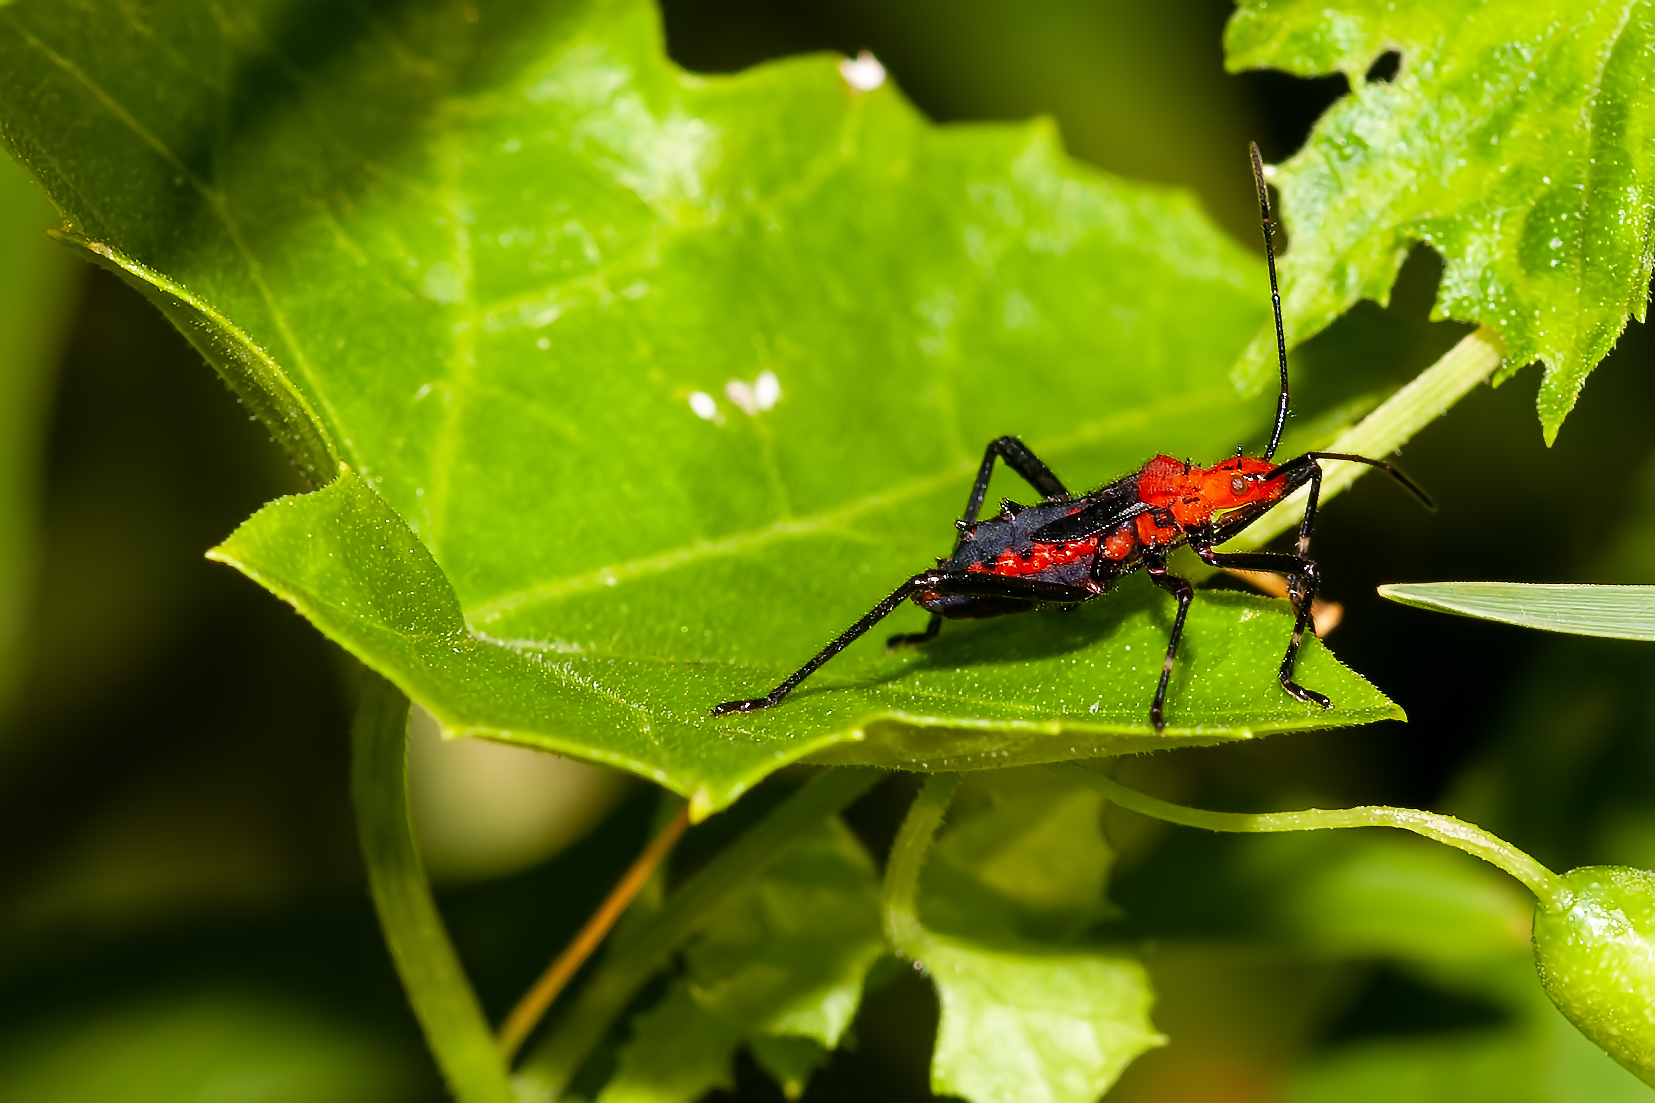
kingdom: Animalia
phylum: Arthropoda
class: Insecta
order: Hemiptera
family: Coreidae
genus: Phthiacnemia
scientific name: Phthiacnemia picta
